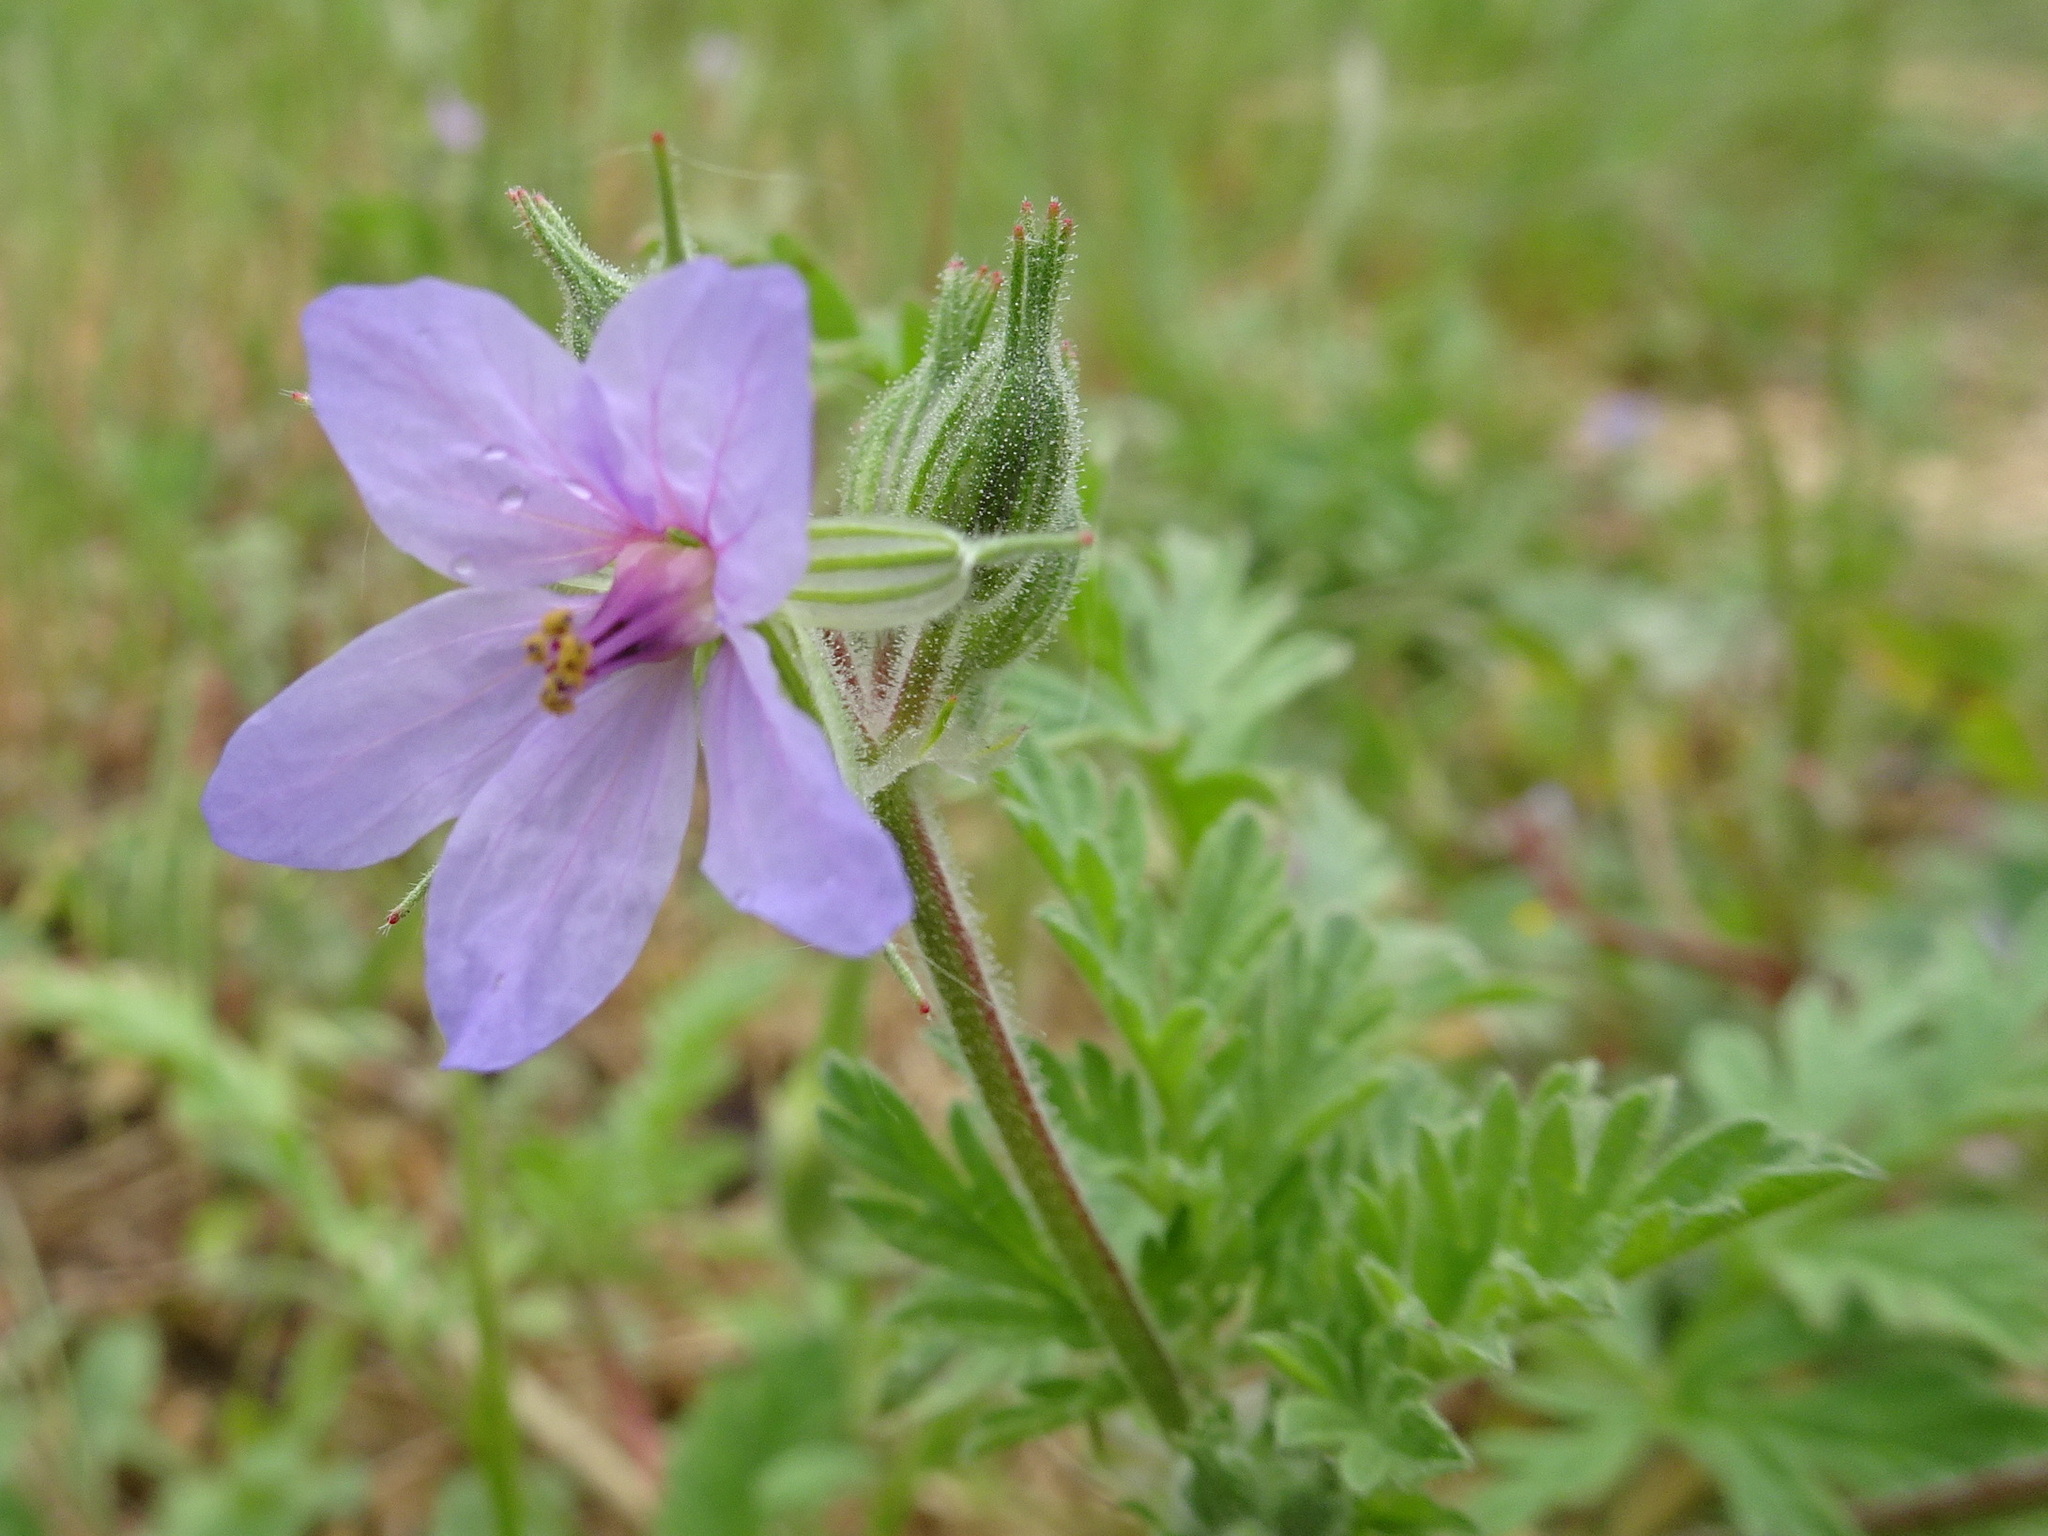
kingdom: Plantae
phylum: Tracheophyta
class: Magnoliopsida
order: Geraniales
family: Geraniaceae
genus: Erodium
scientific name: Erodium ciconium
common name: Common stork's bill
